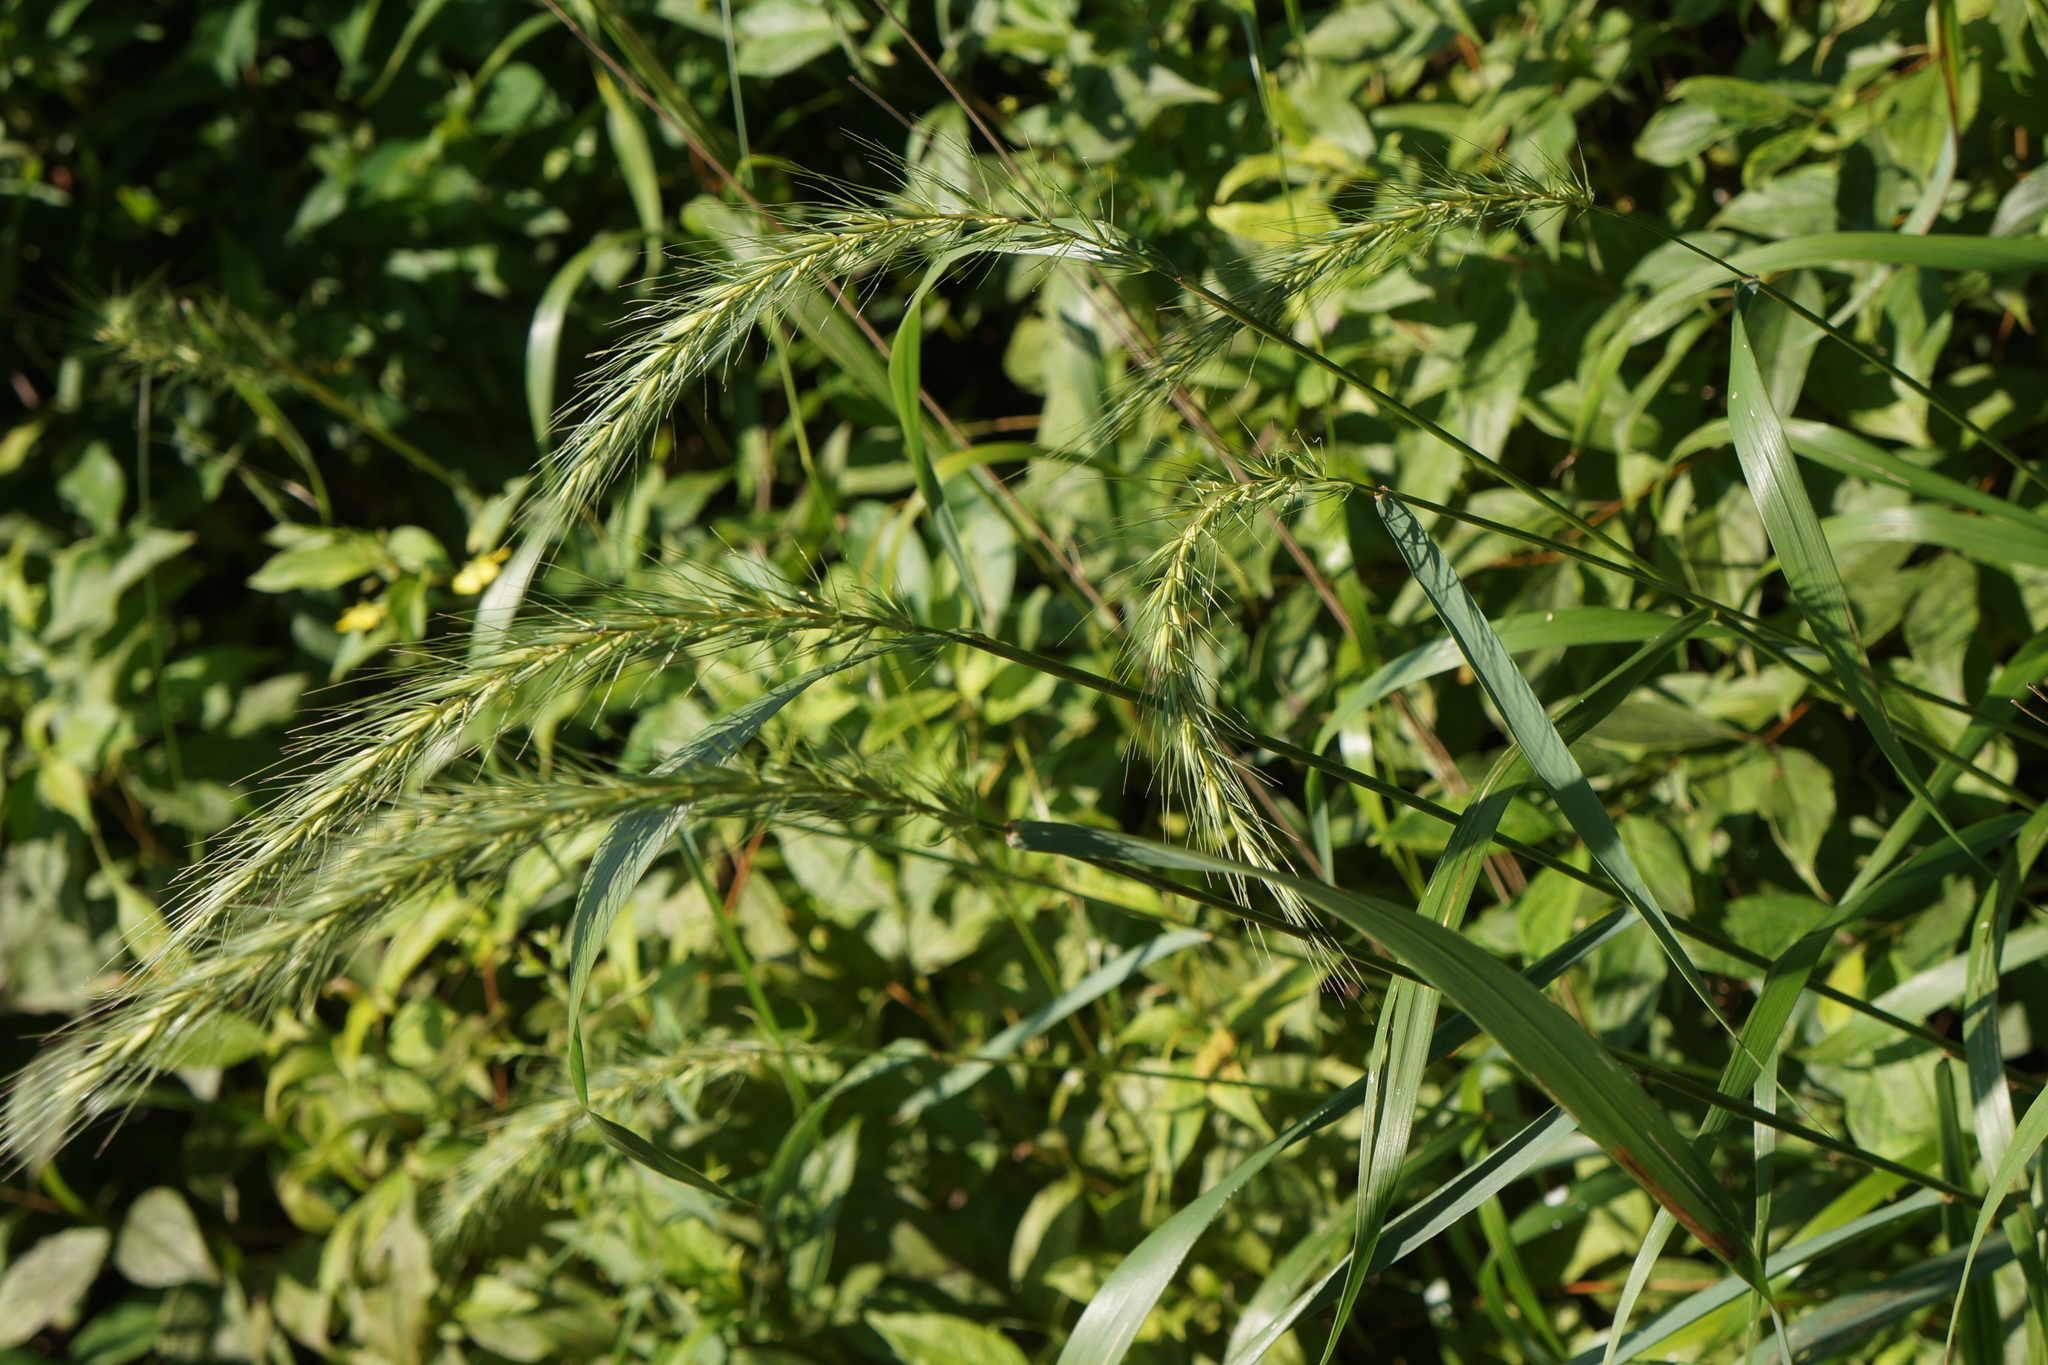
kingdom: Plantae
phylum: Tracheophyta
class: Liliopsida
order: Poales
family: Poaceae
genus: Elymus
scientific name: Elymus riparius
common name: Eastern riverbank wild rye
